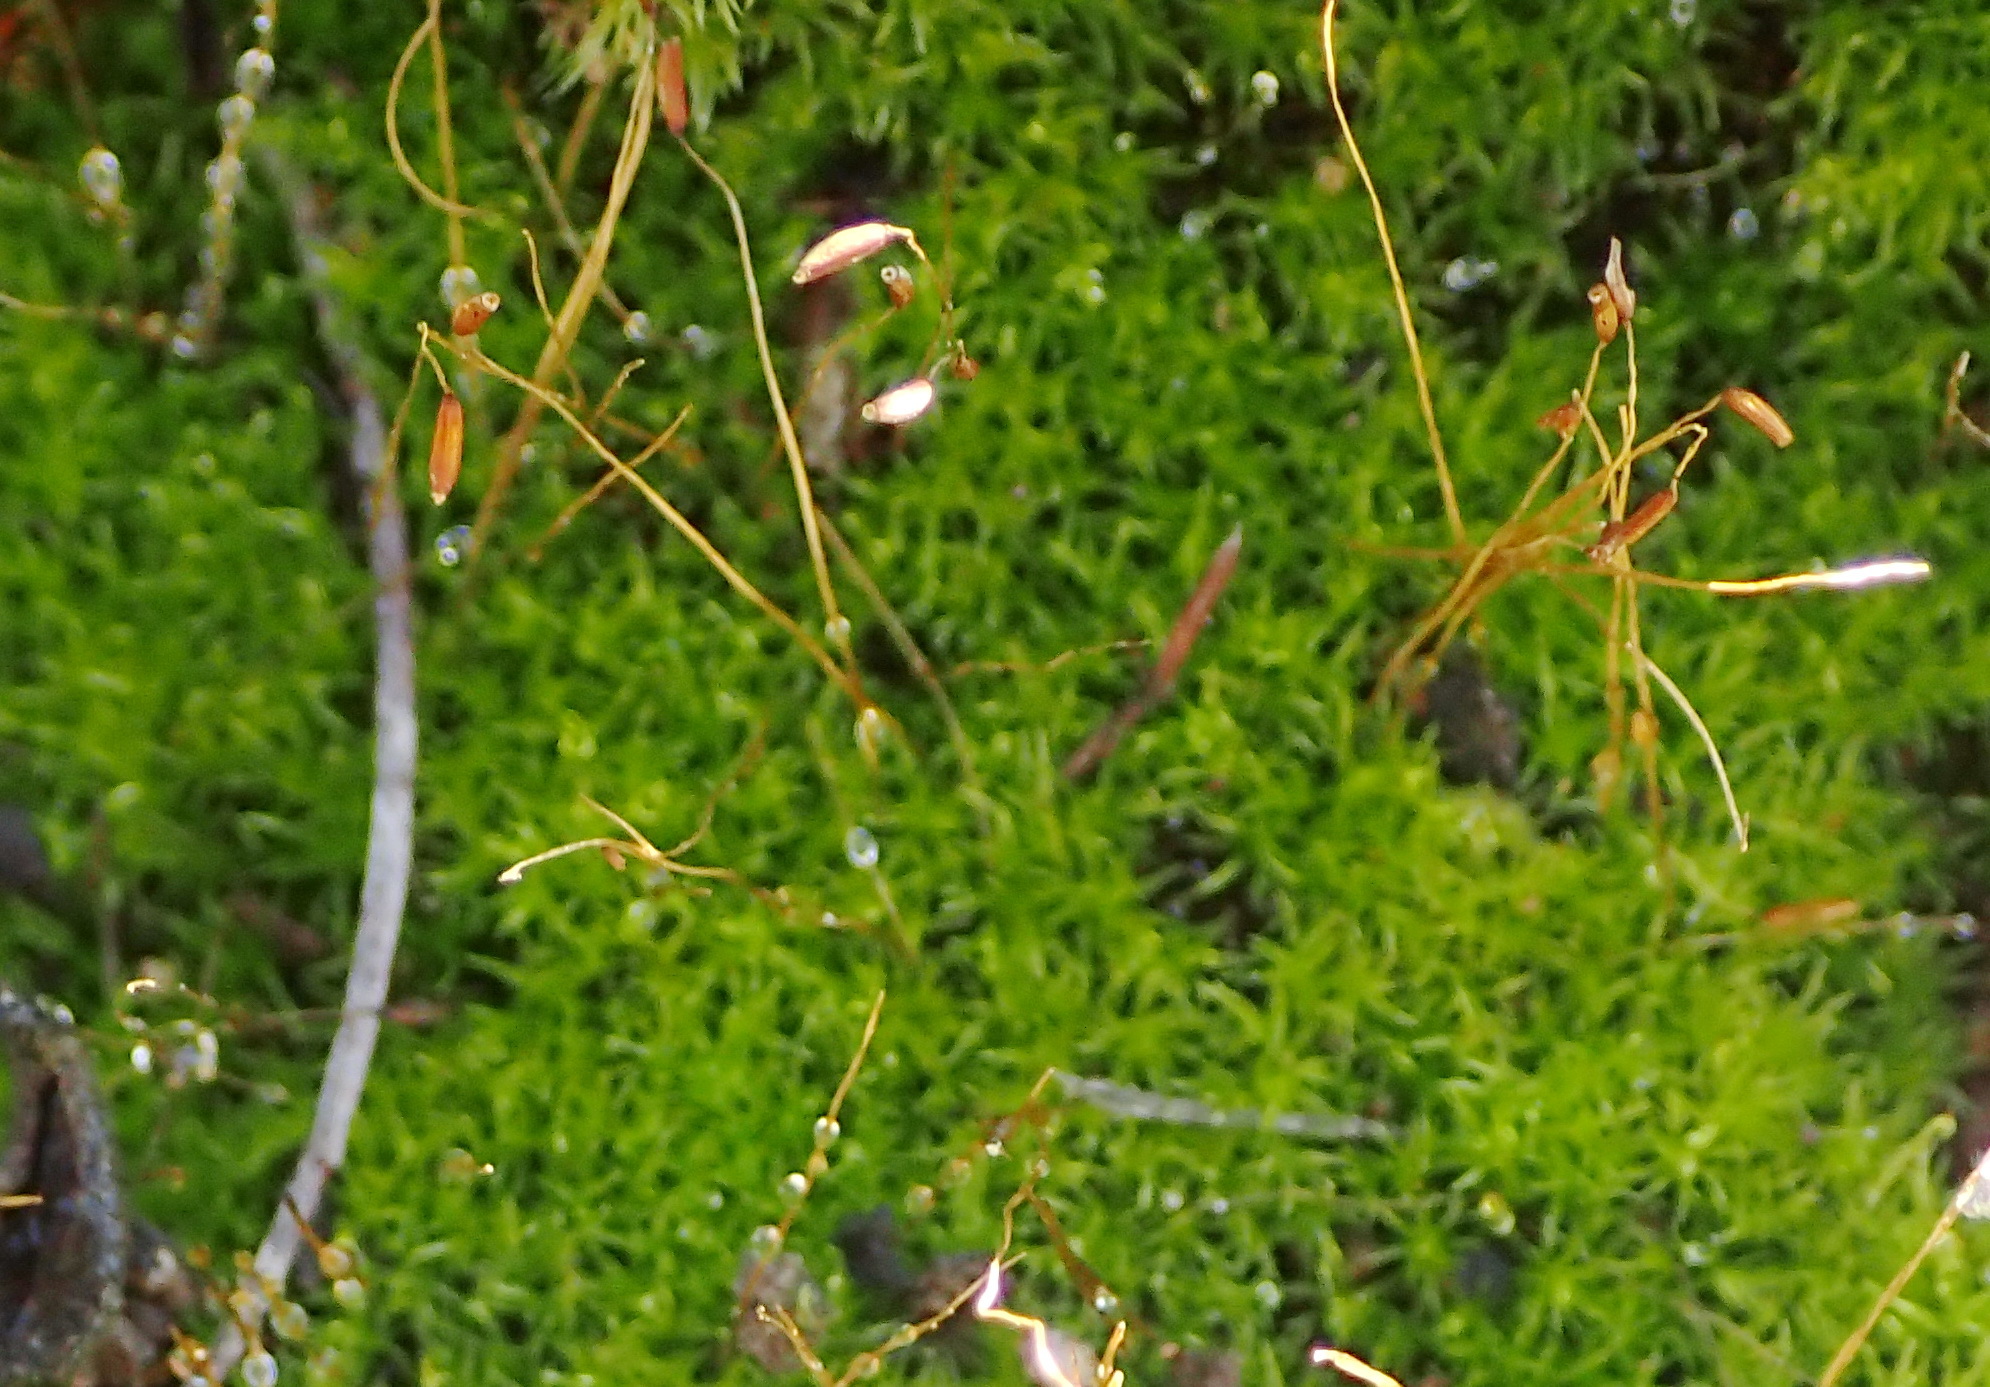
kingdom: Plantae
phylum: Bryophyta
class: Bryopsida
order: Dicranales
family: Ditrichaceae
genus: Ceratodon
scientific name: Ceratodon purpureus
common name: Redshank
